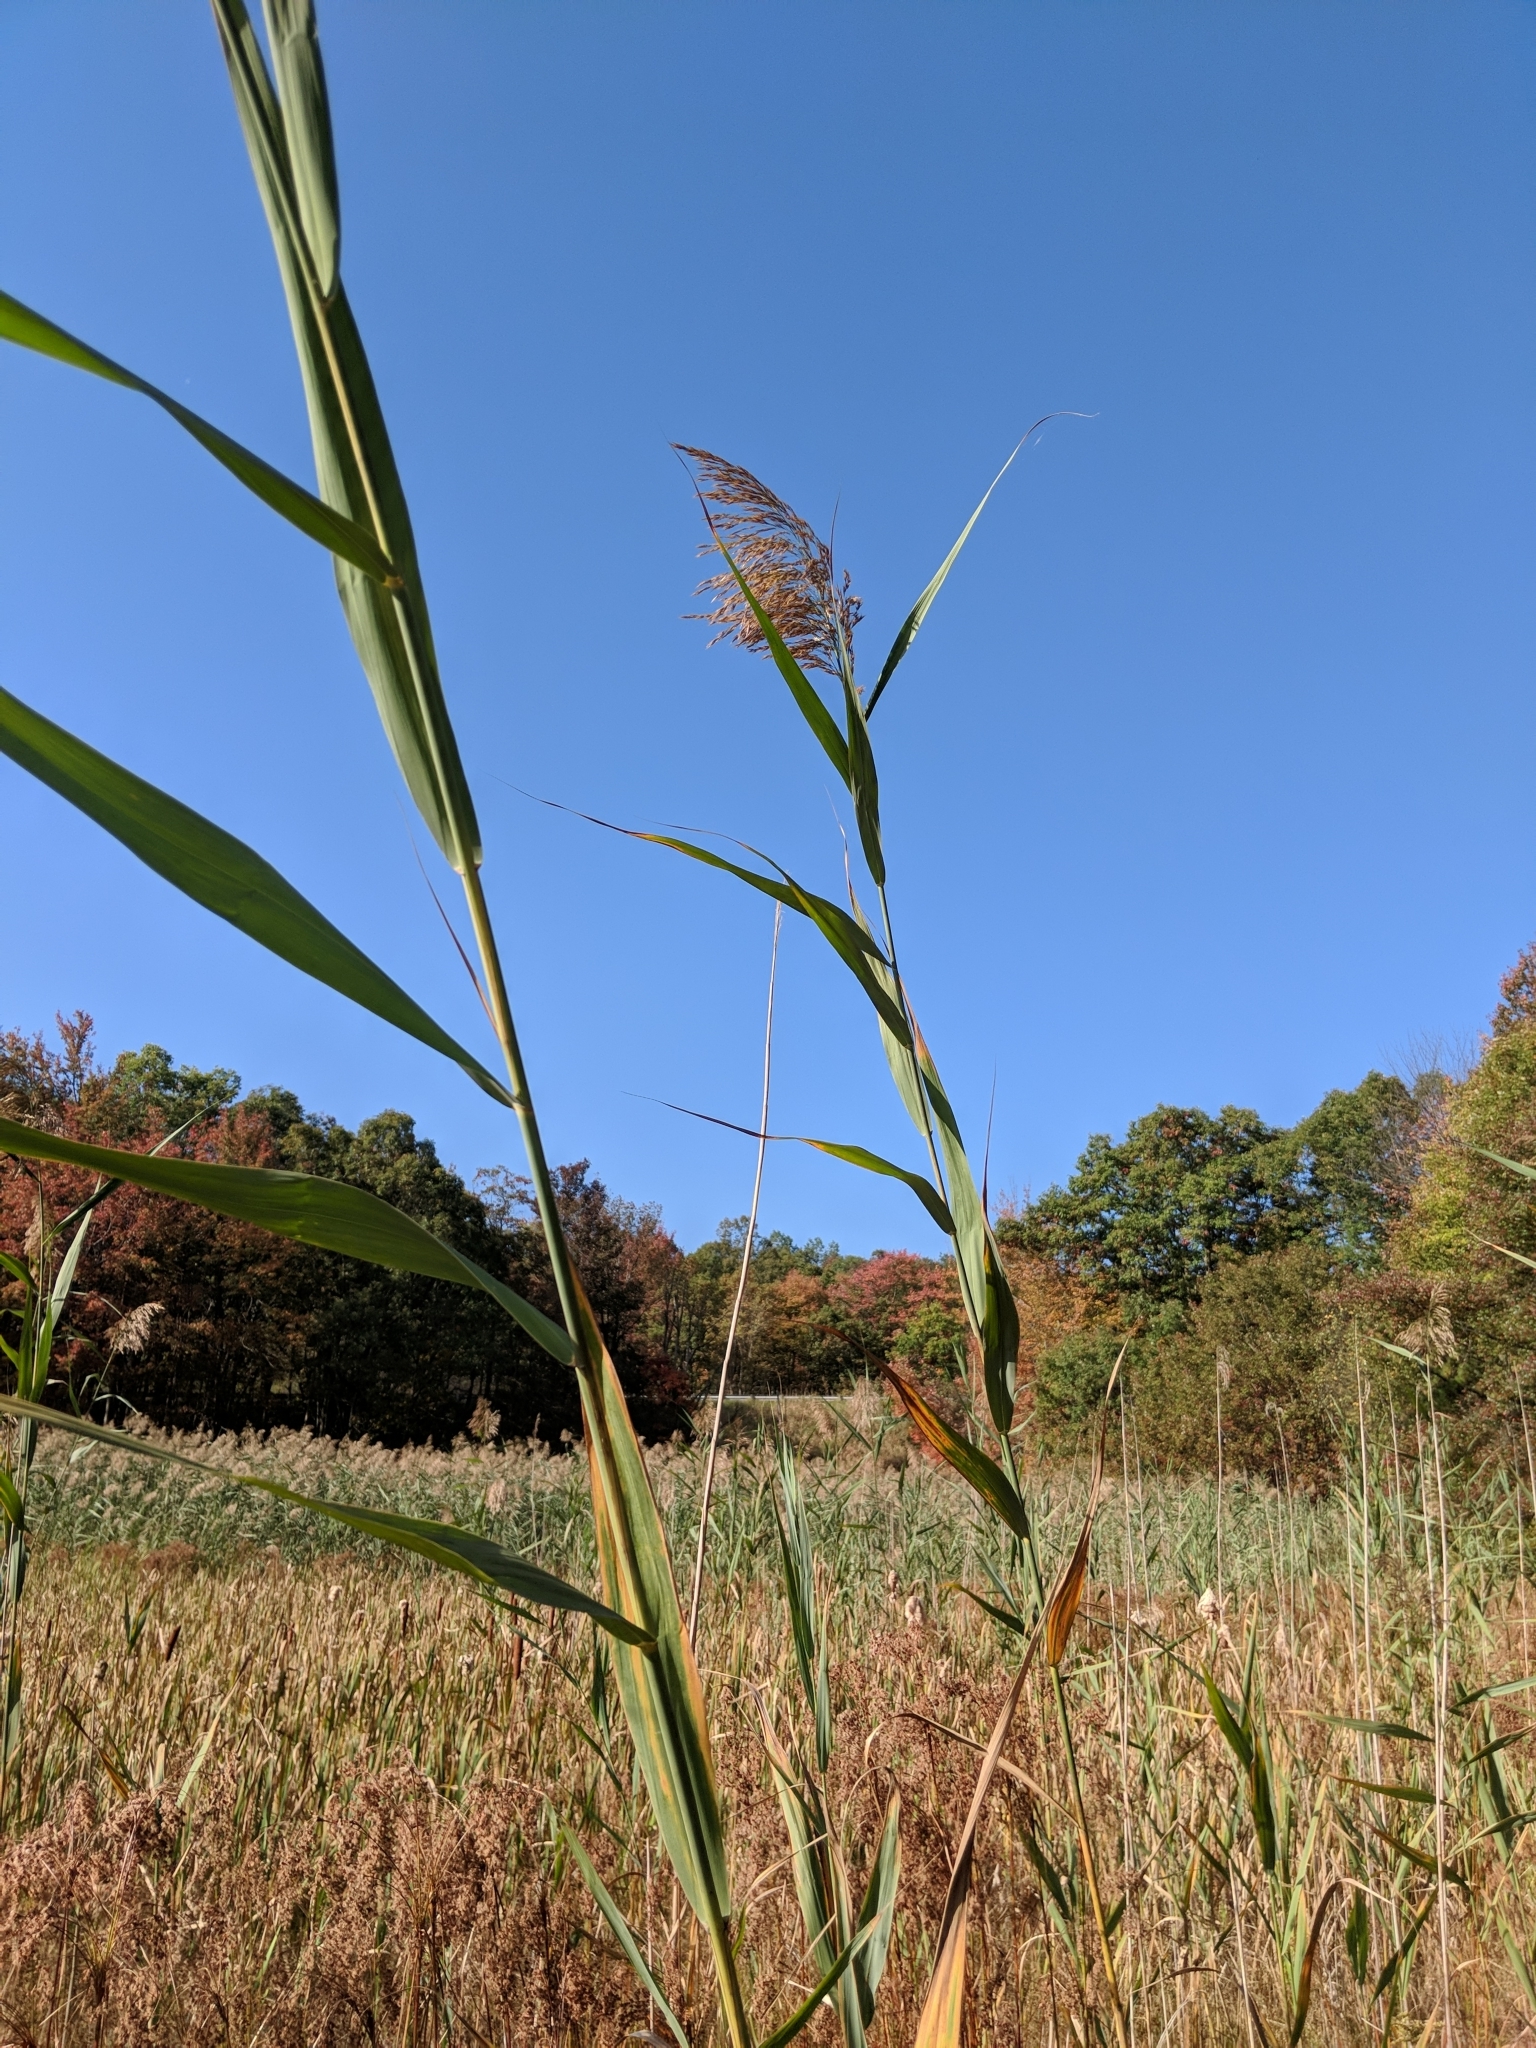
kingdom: Plantae
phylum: Tracheophyta
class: Liliopsida
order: Poales
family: Poaceae
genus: Phragmites
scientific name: Phragmites australis
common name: Common reed
